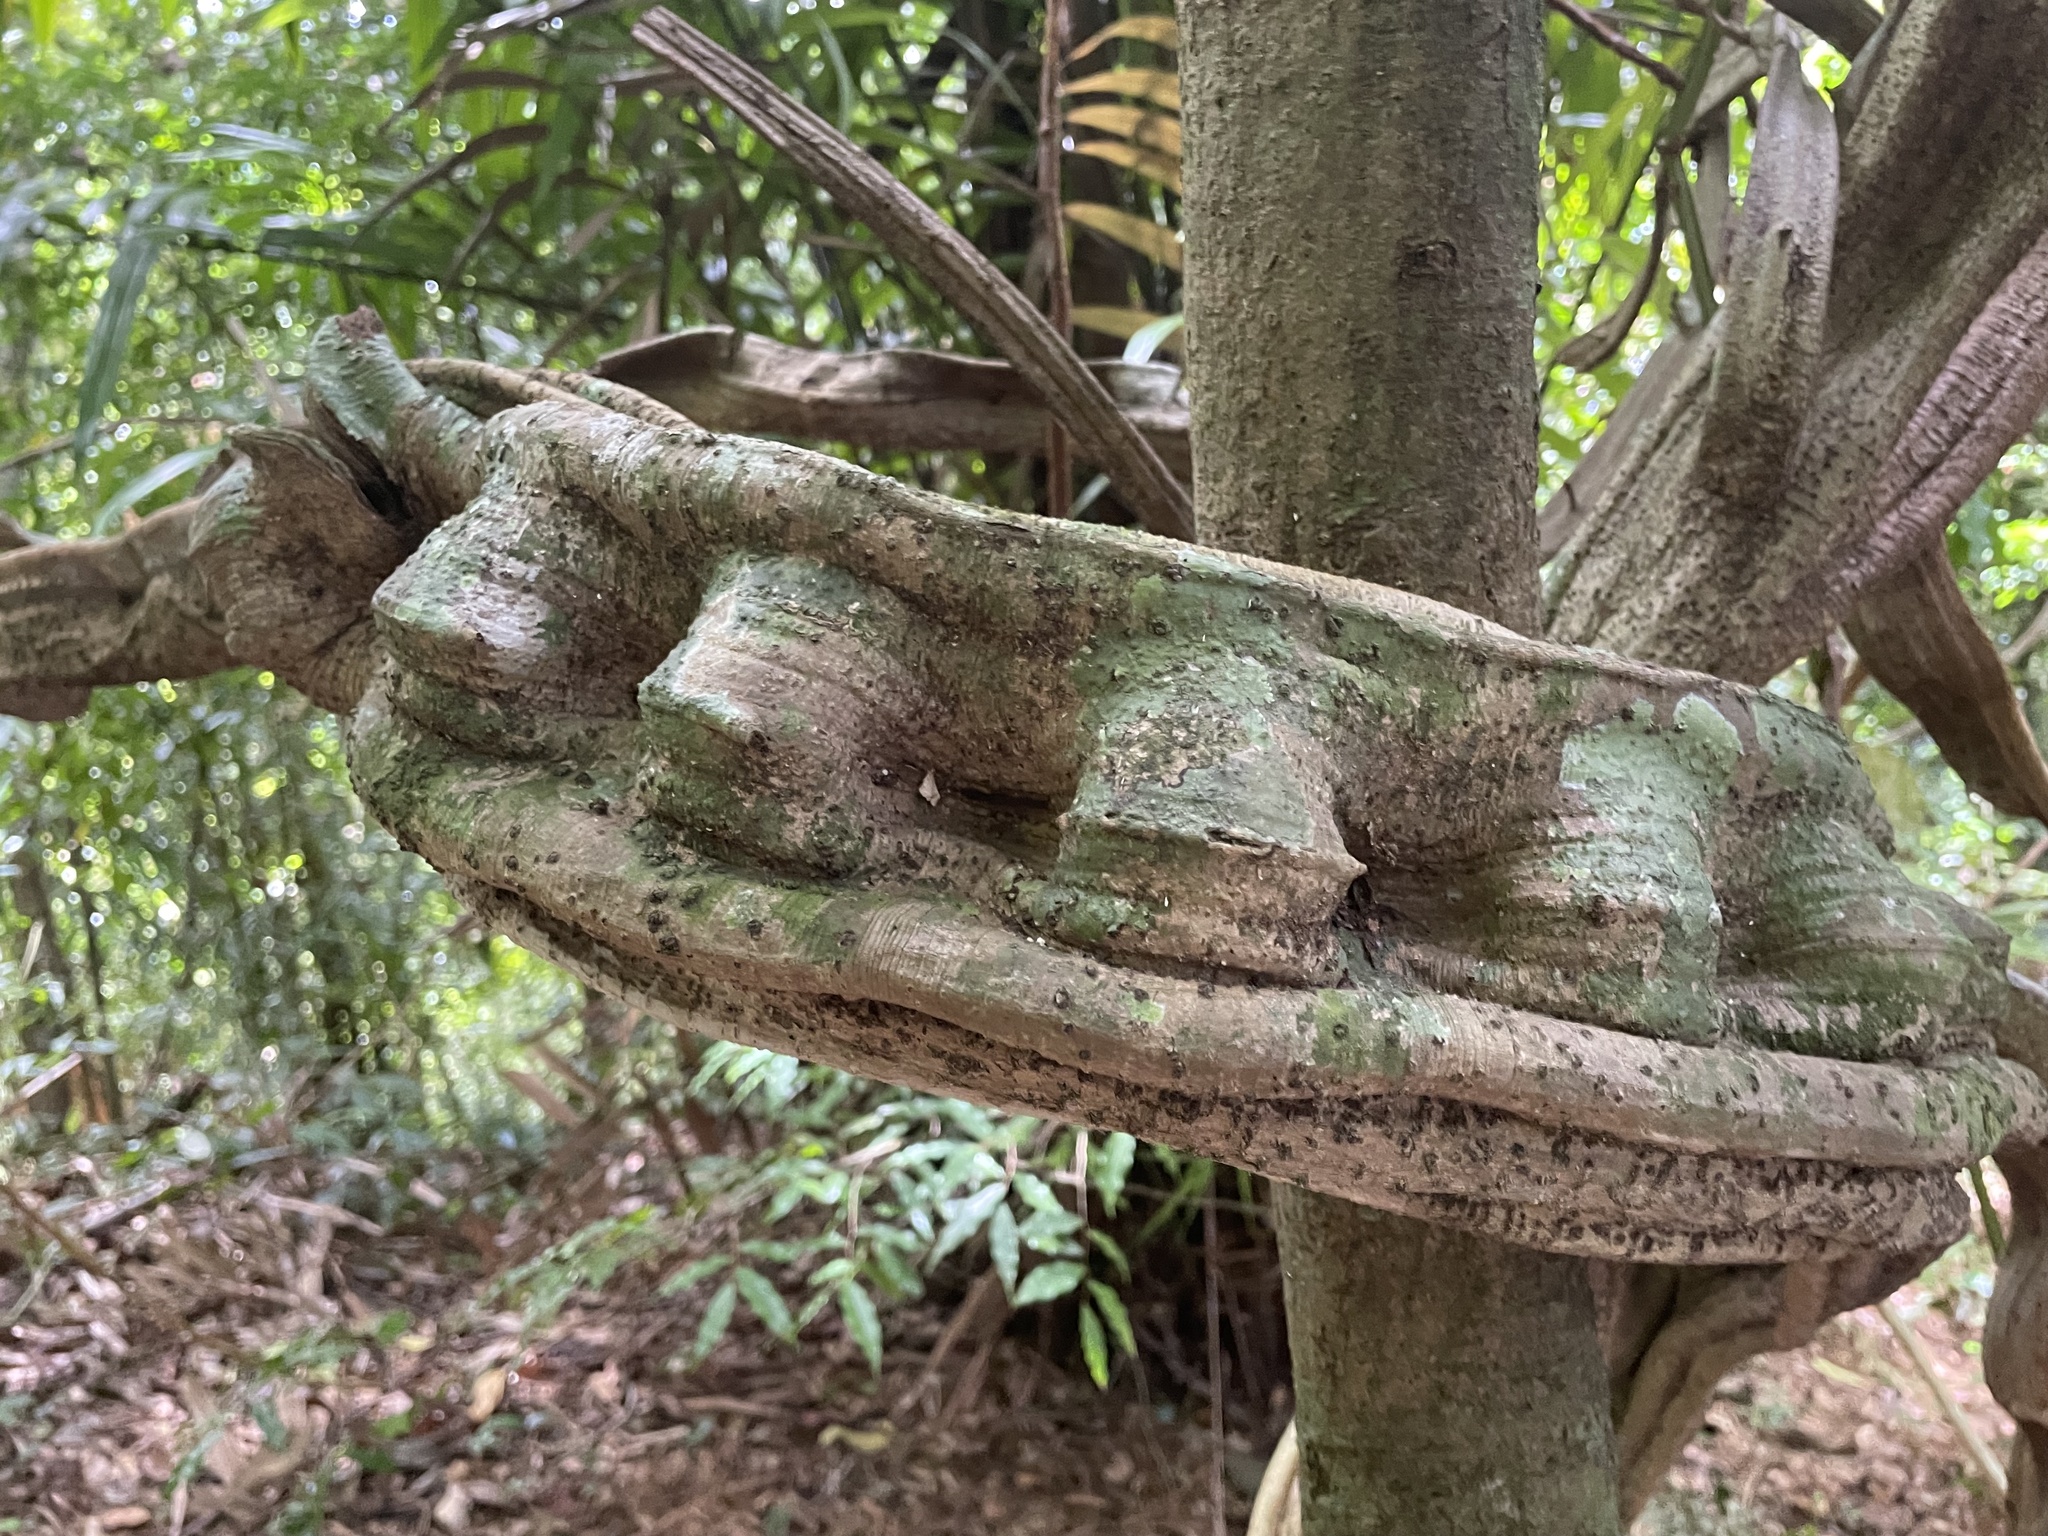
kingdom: Plantae
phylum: Tracheophyta
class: Magnoliopsida
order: Fabales
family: Fabaceae
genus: Schnella
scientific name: Schnella guianensis
